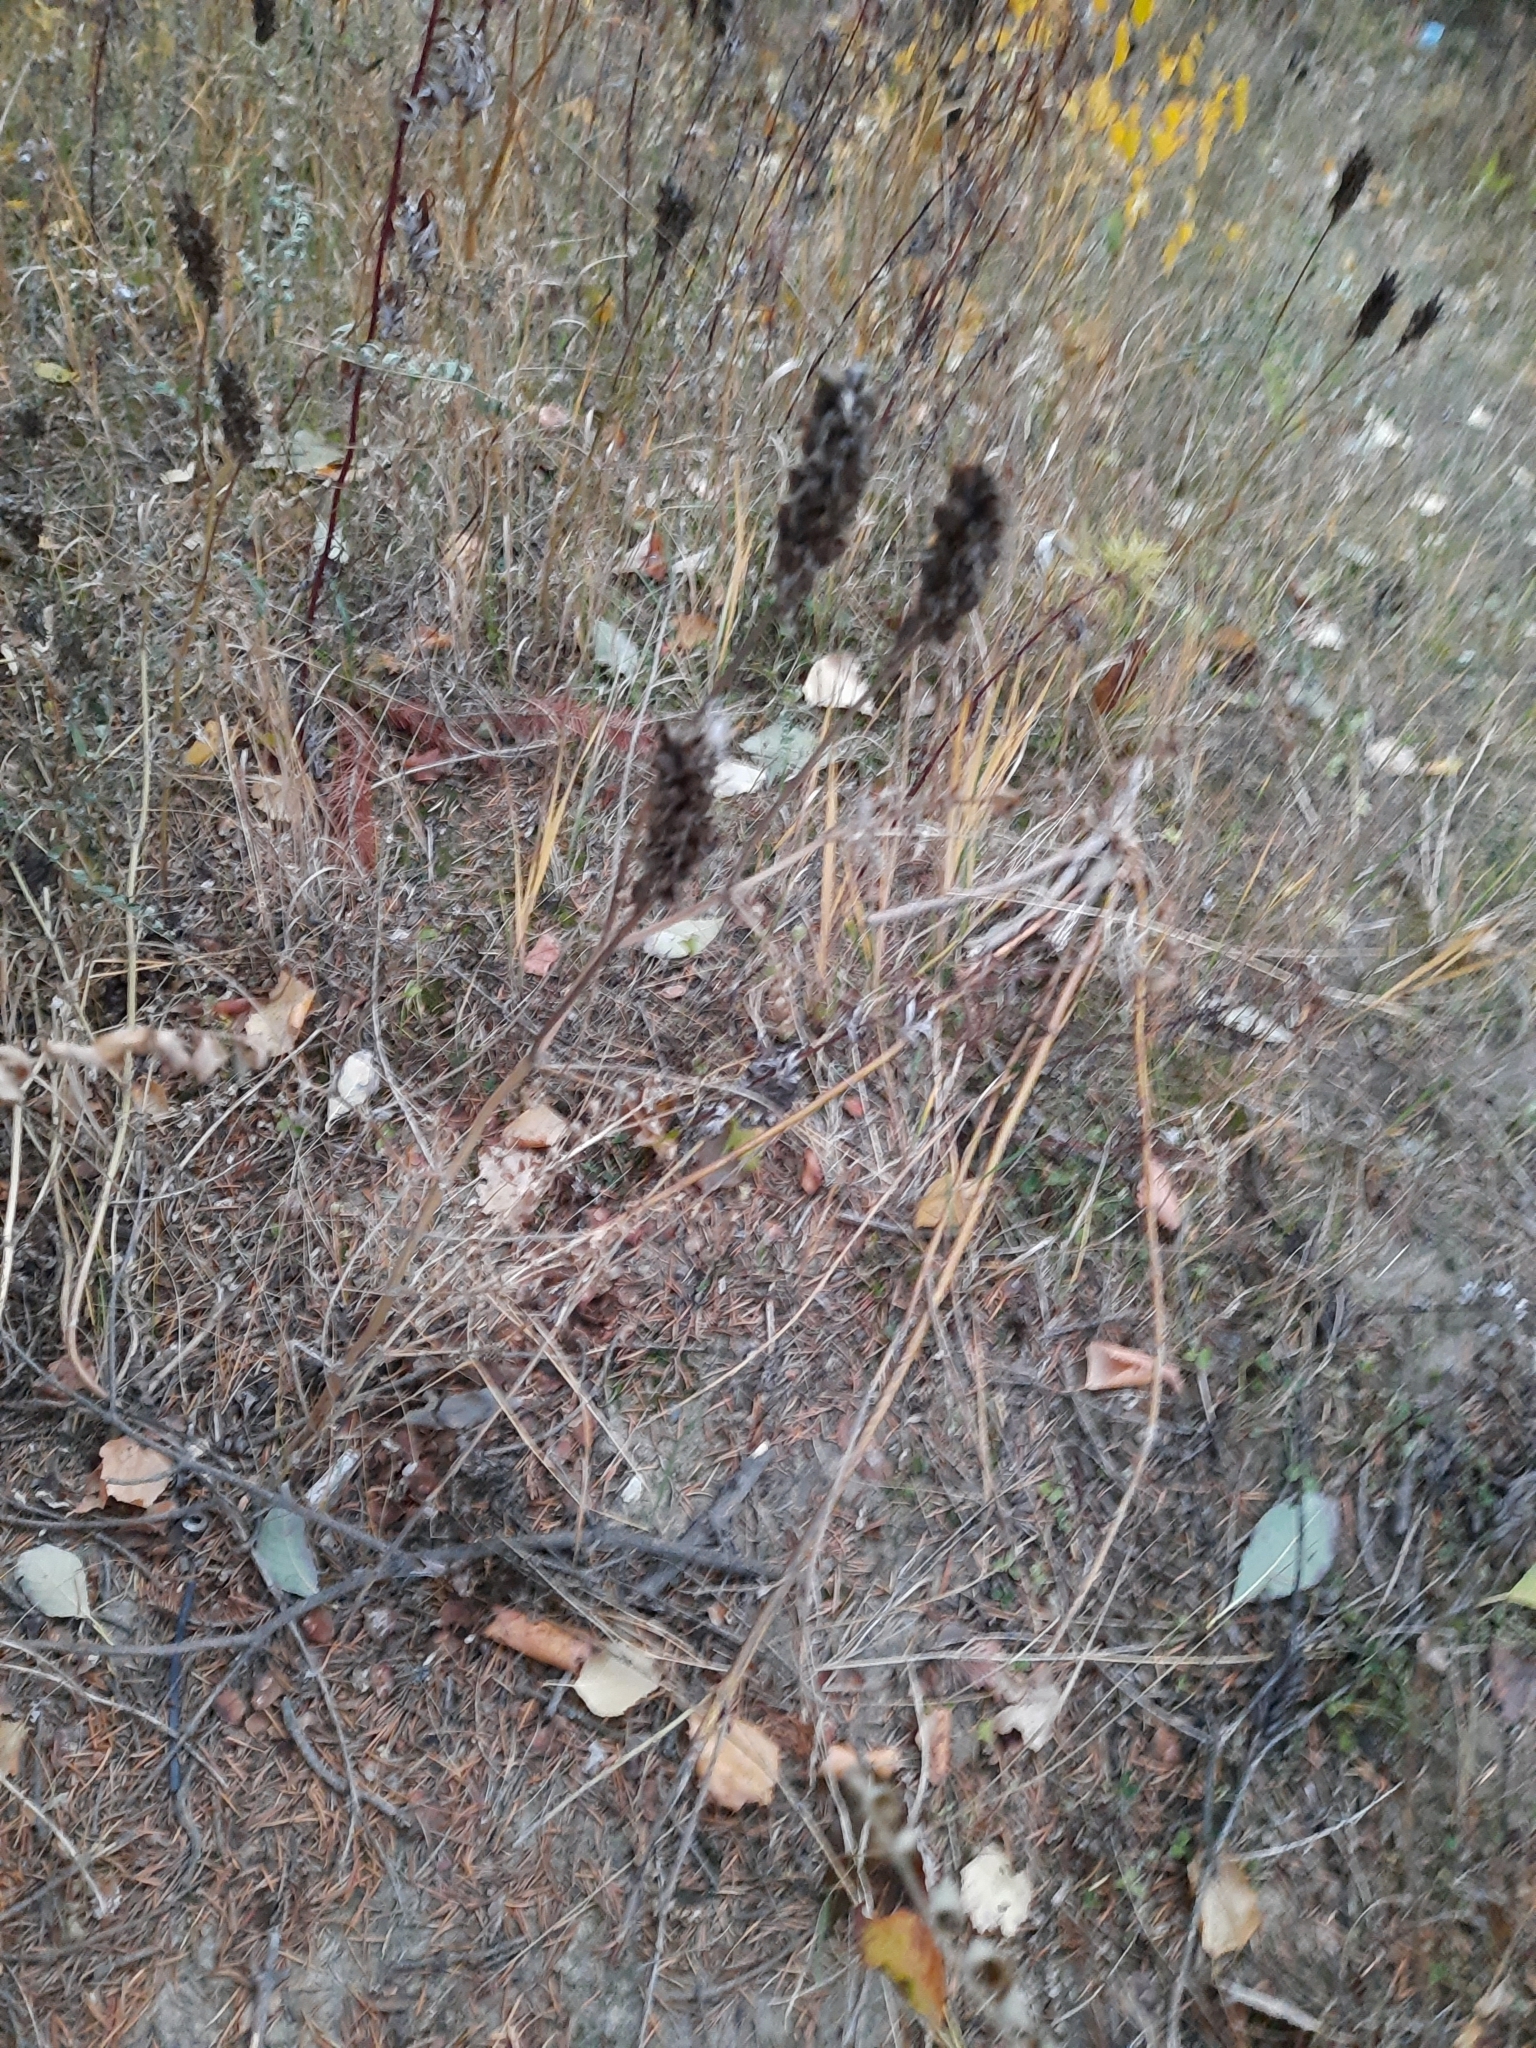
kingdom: Plantae
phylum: Tracheophyta
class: Magnoliopsida
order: Fabales
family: Fabaceae
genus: Astragalus
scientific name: Astragalus uliginosus
